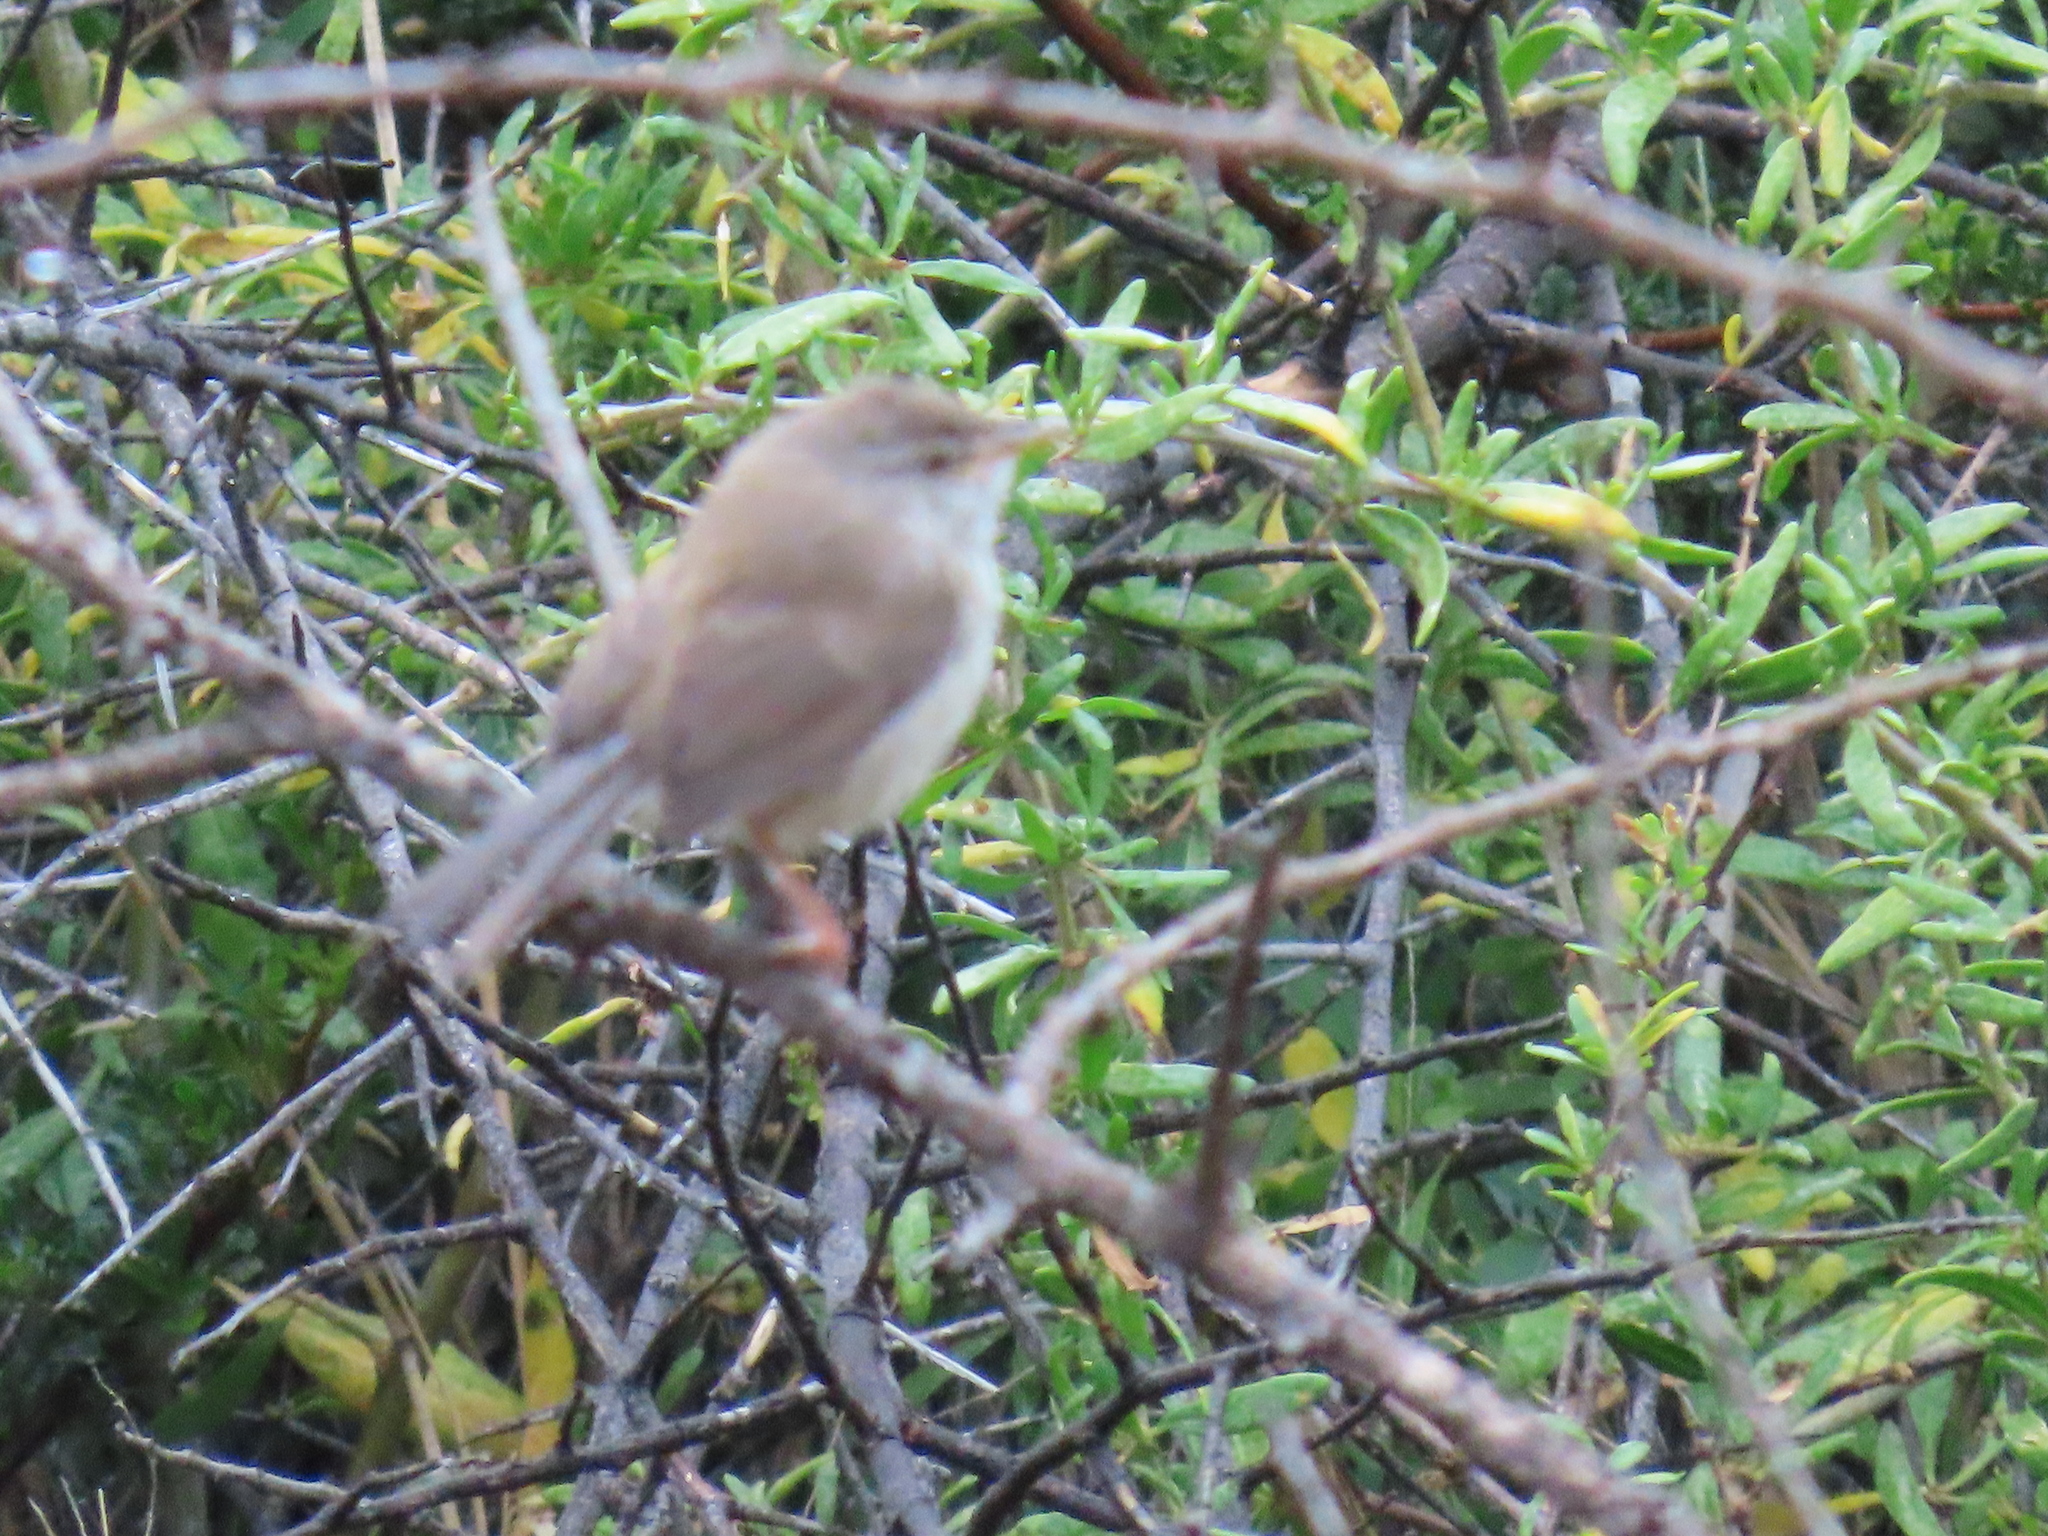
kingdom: Animalia
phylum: Chordata
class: Aves
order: Passeriformes
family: Cisticolidae
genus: Prinia
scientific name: Prinia maculosa
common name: Karoo prinia
